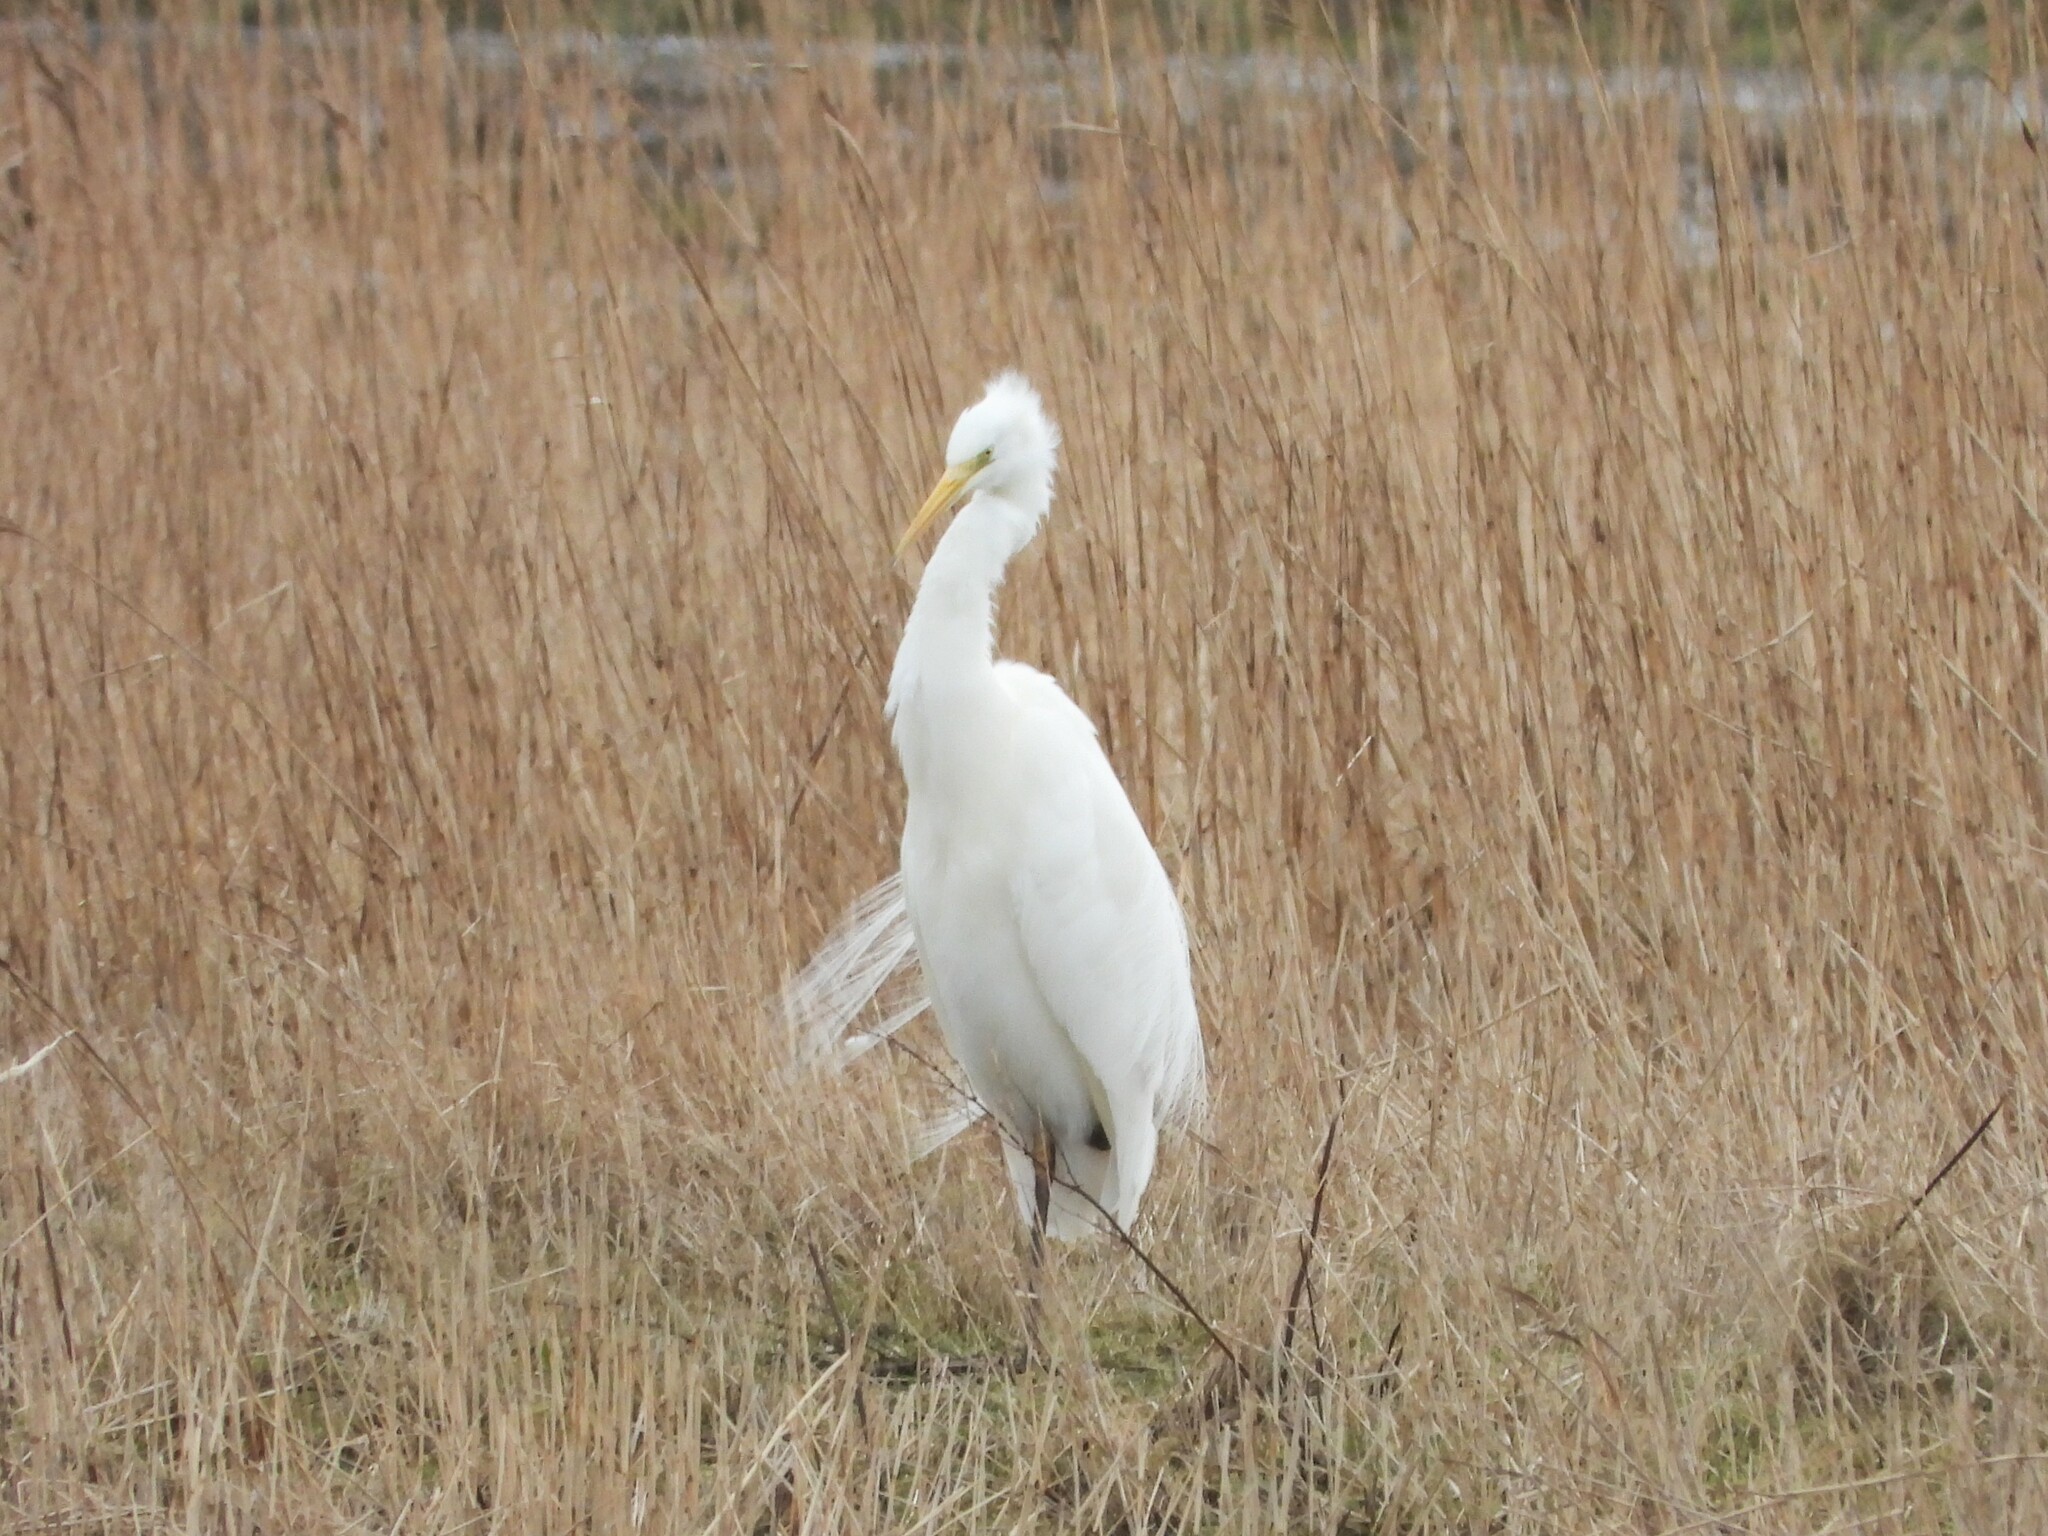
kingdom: Animalia
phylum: Chordata
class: Aves
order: Pelecaniformes
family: Ardeidae
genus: Ardea
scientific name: Ardea alba
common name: Great egret
